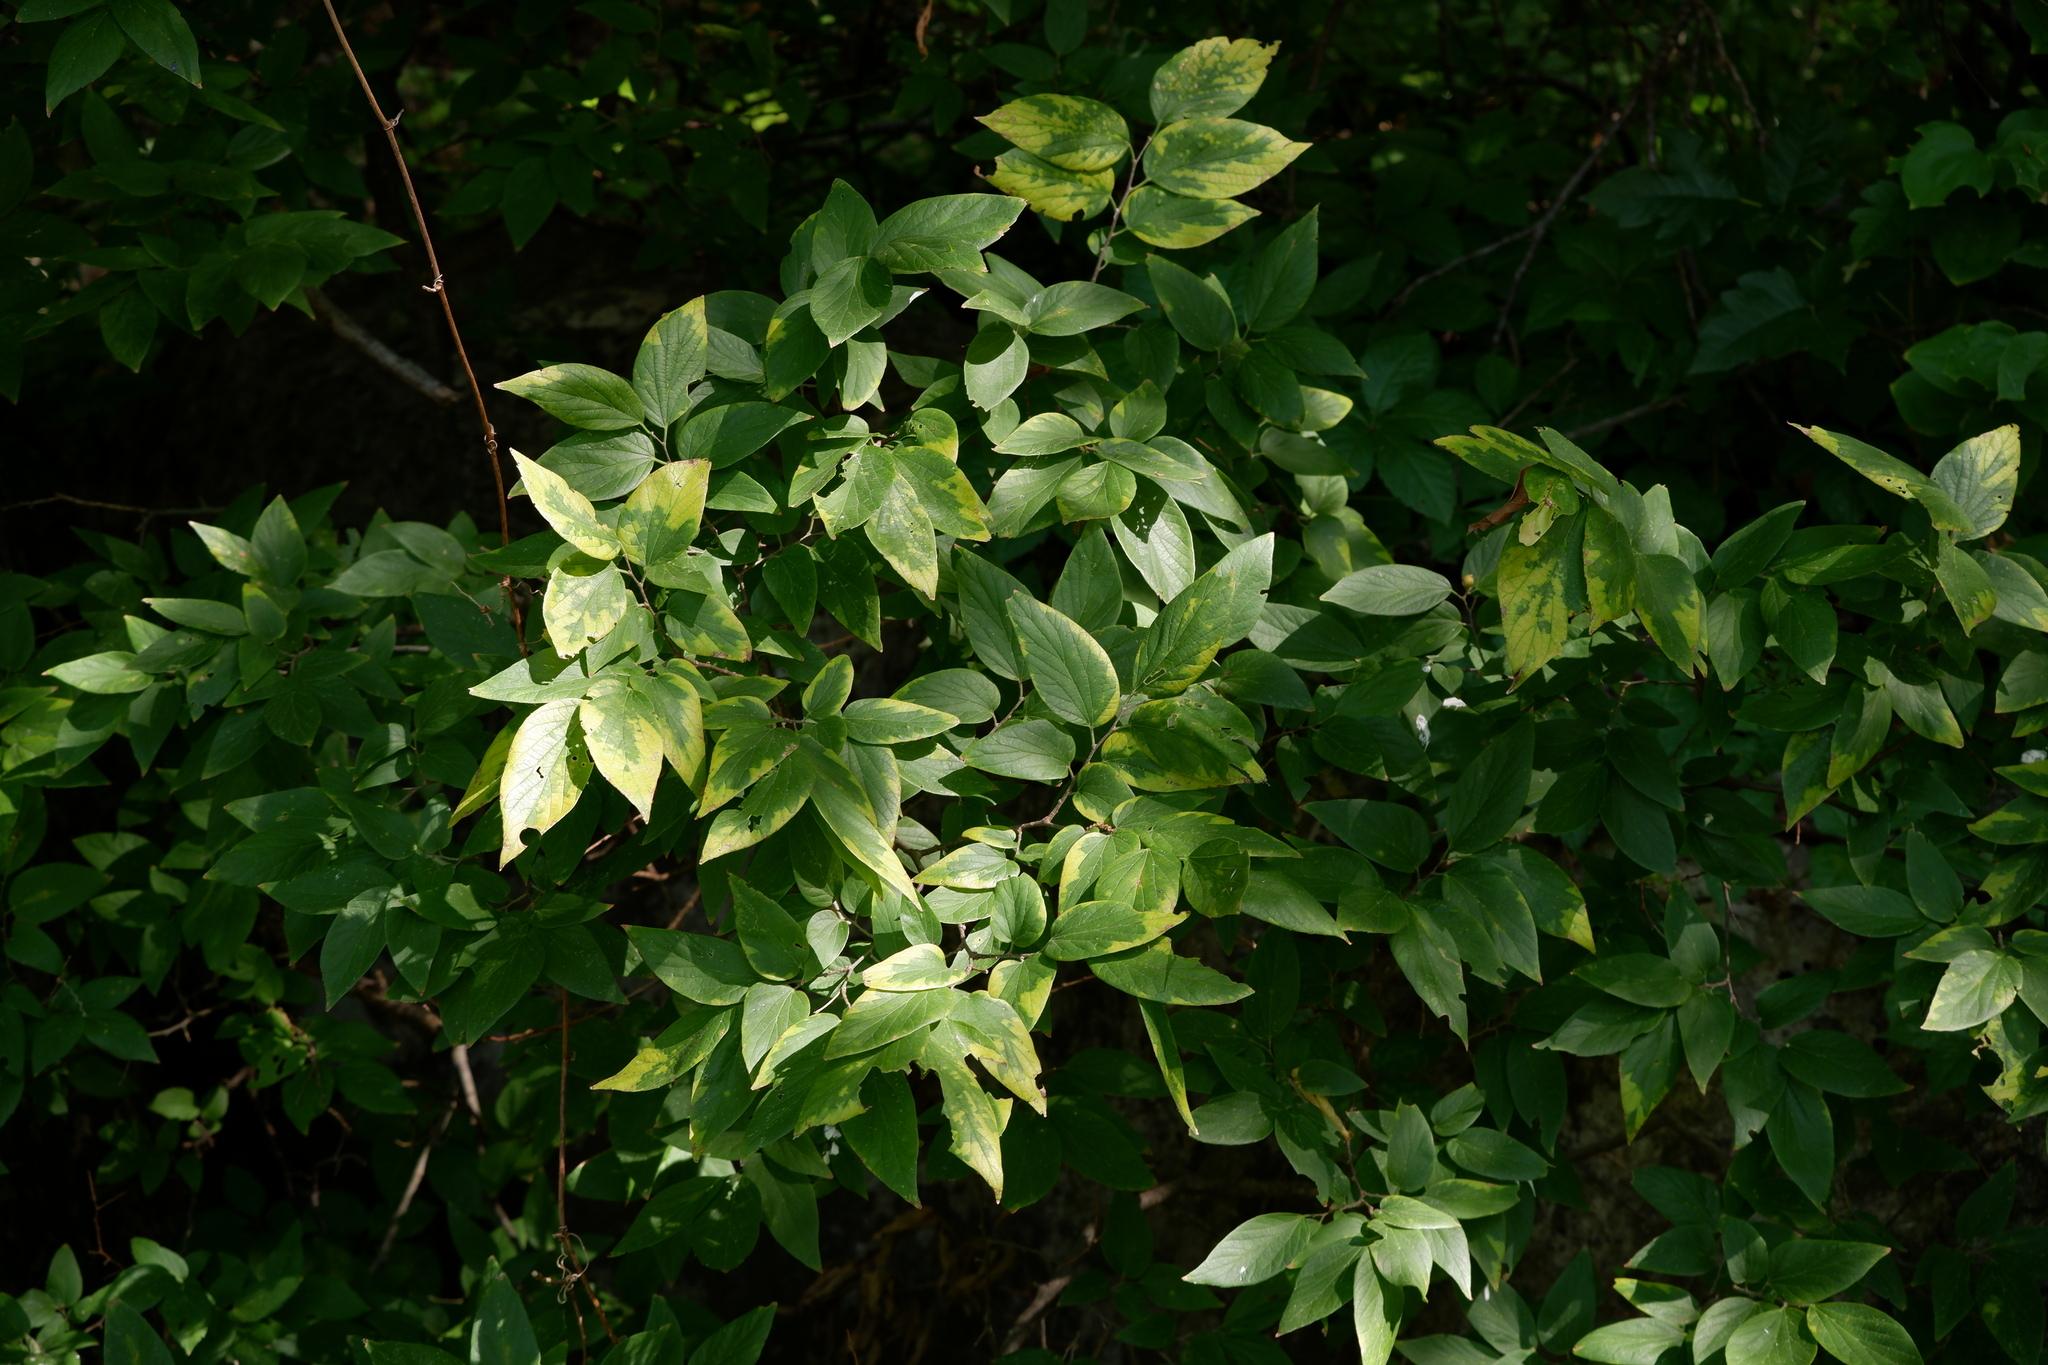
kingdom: Viruses
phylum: Kitrinoviricota
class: Alsuviricetes
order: Martellivirales
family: Closteroviridae
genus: Ampelovirus
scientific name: Ampelovirus
